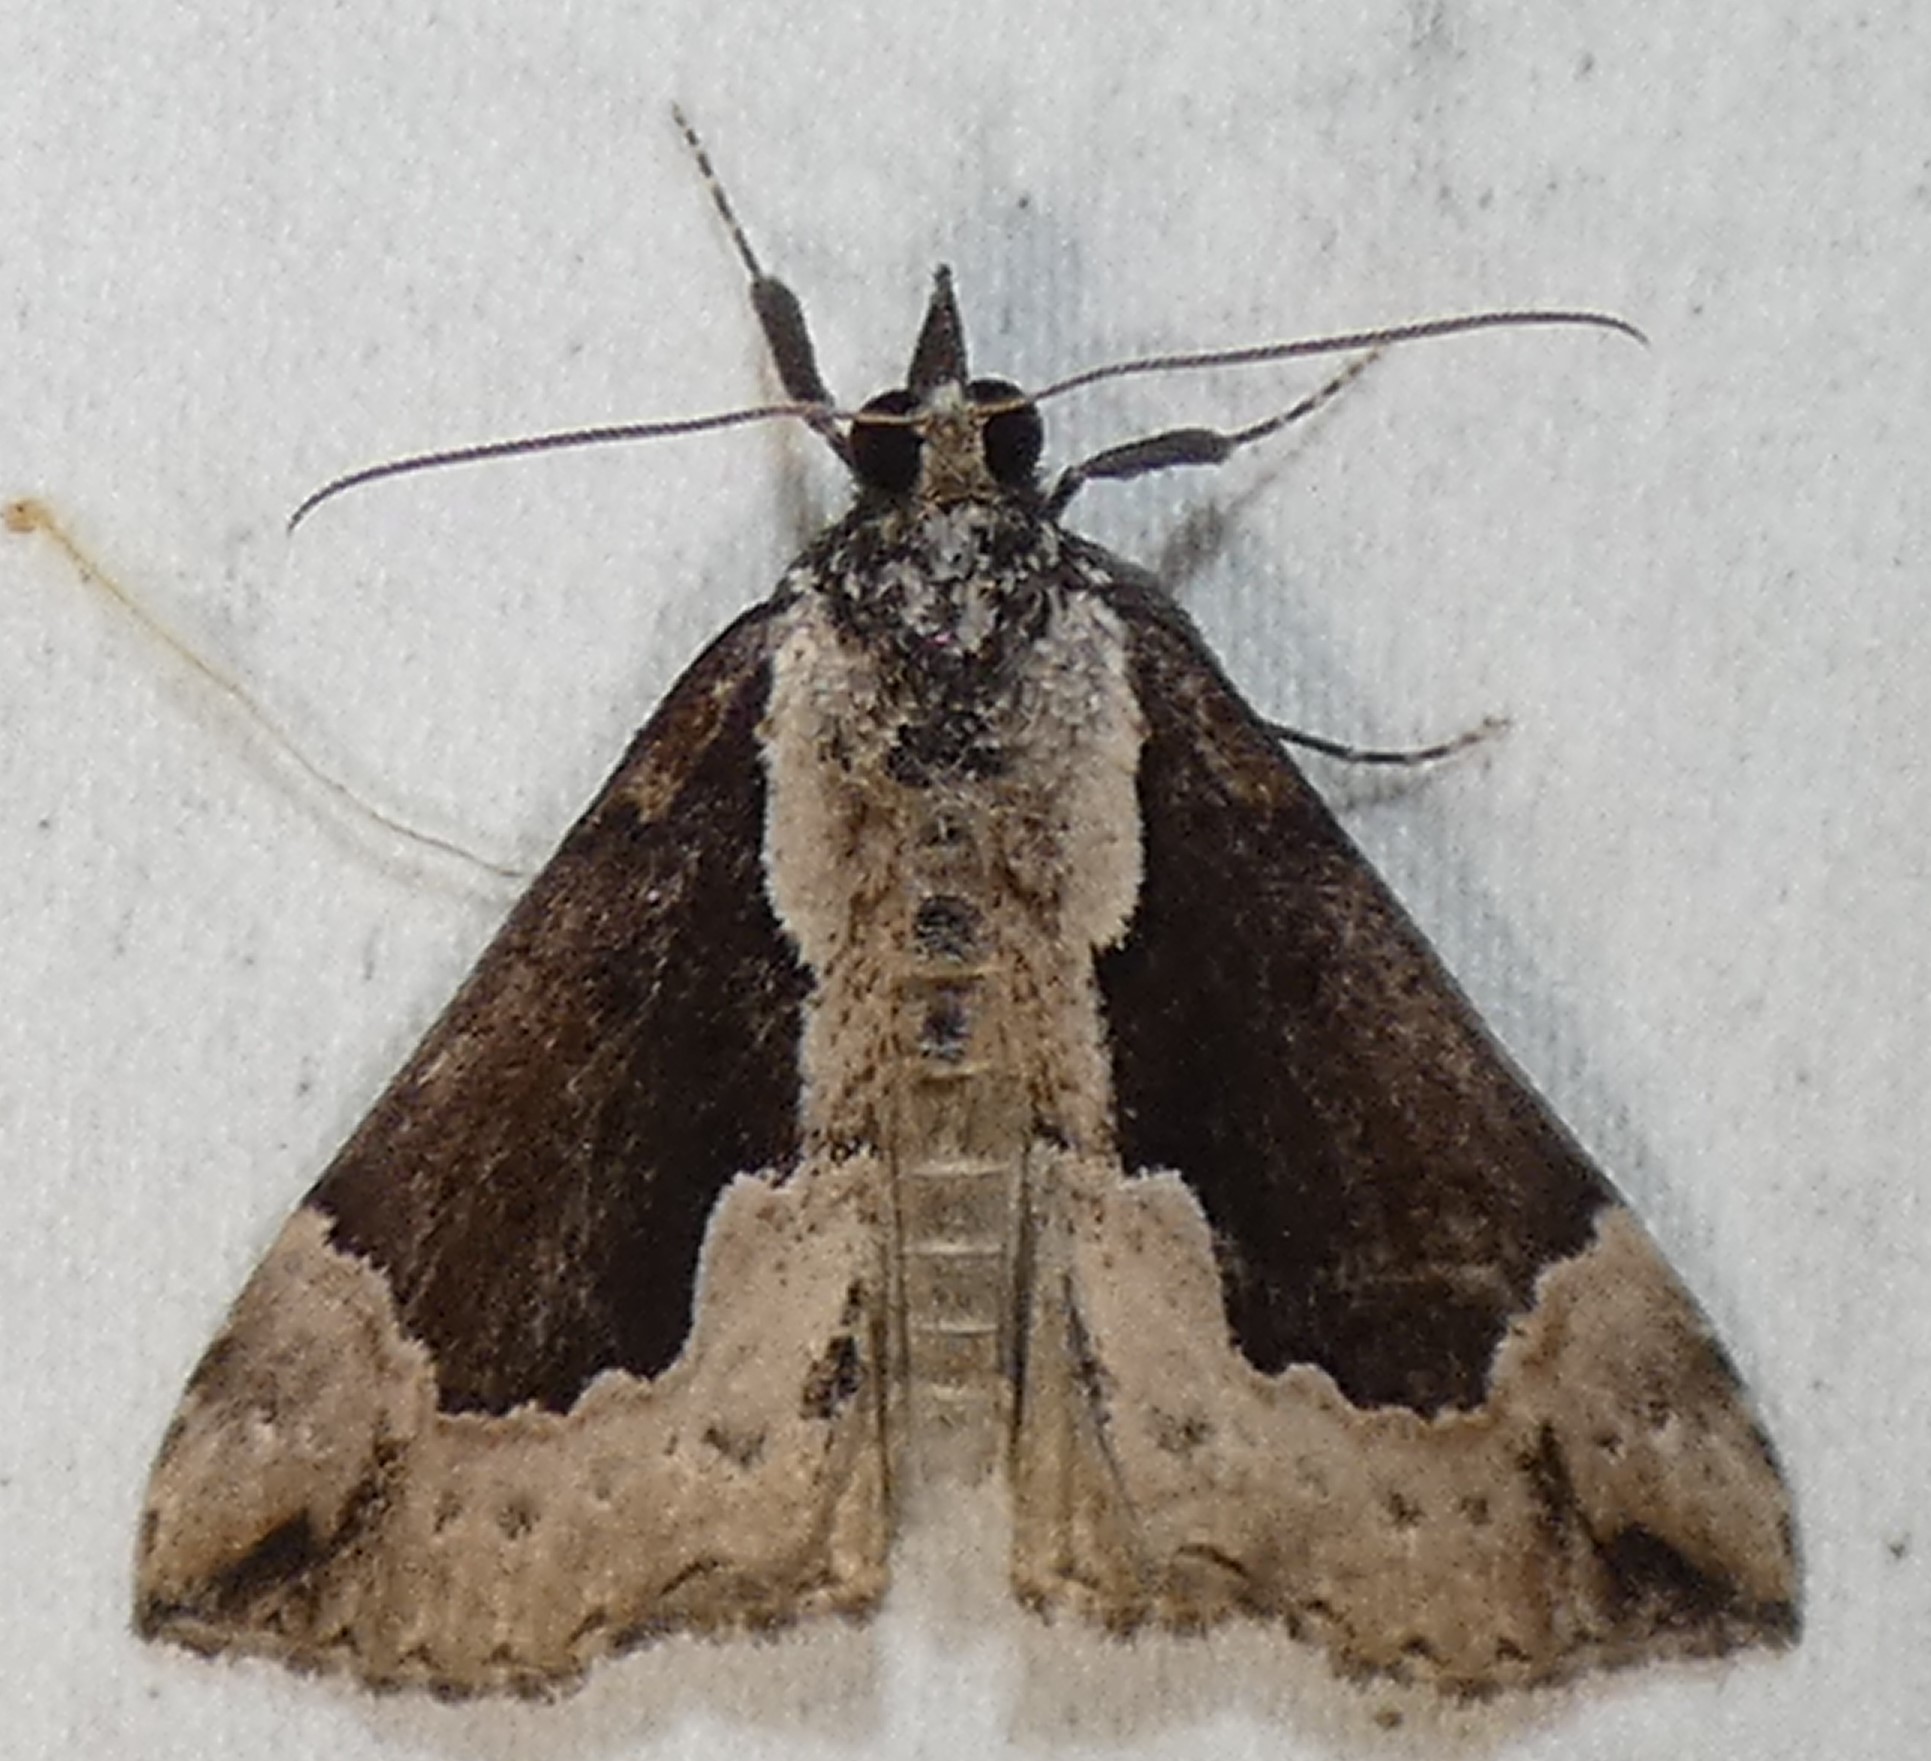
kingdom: Animalia
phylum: Arthropoda
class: Insecta
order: Lepidoptera
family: Erebidae
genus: Hypena
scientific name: Hypena baltimoralis
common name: Baltimore snout
